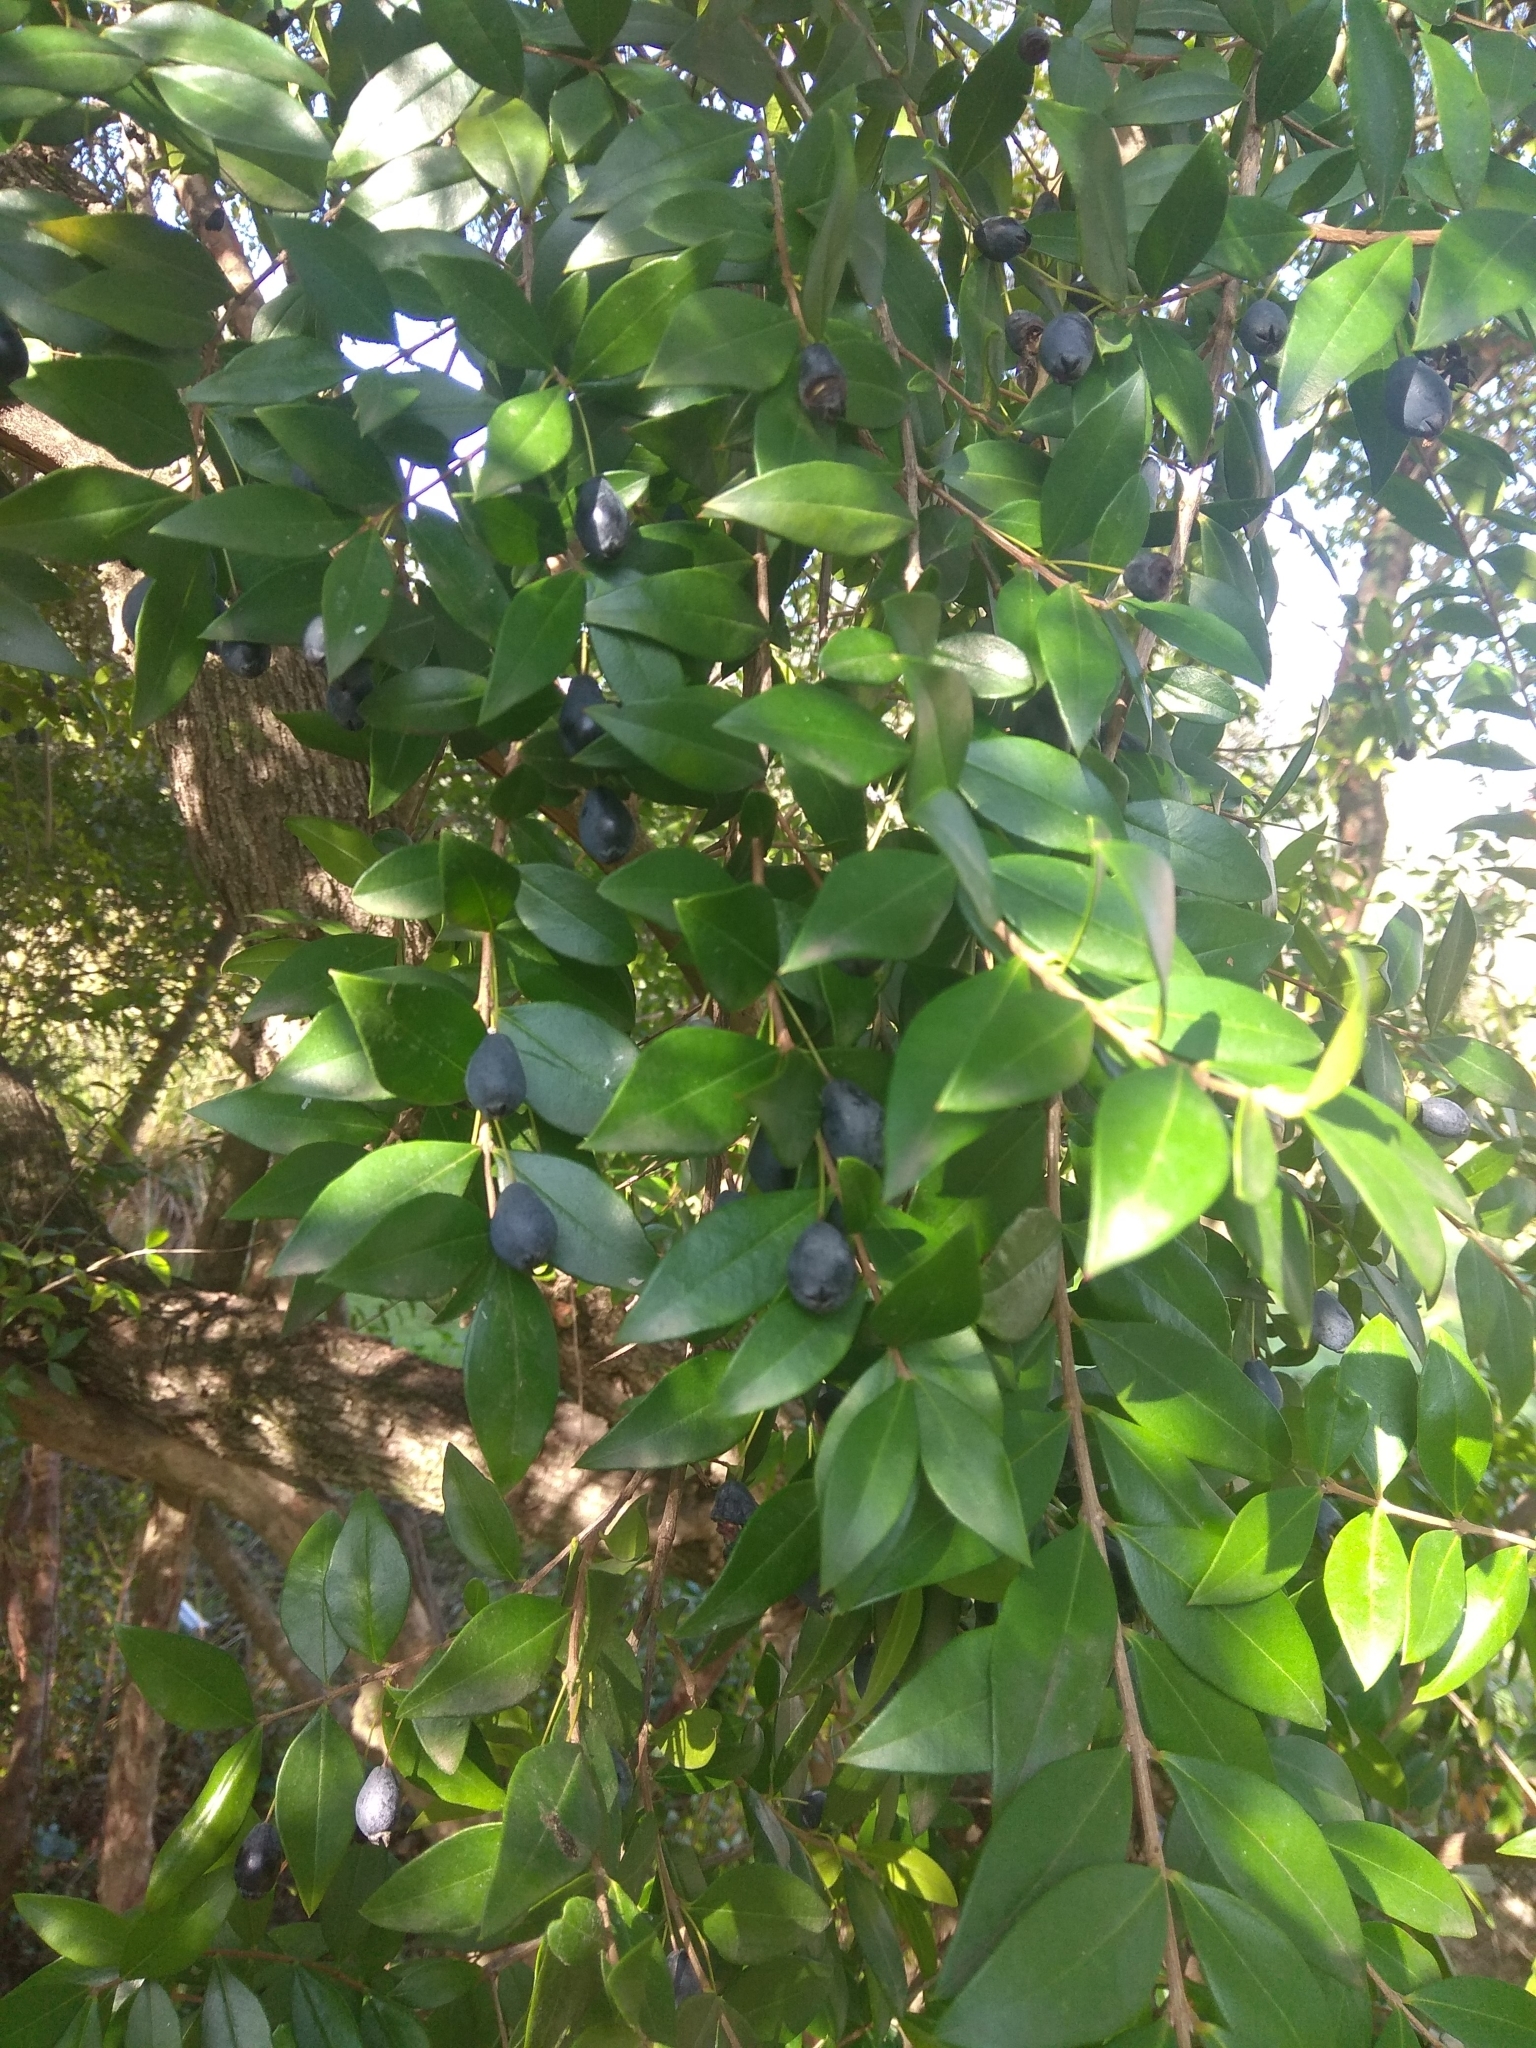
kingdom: Plantae
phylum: Tracheophyta
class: Magnoliopsida
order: Myrtales
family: Myrtaceae
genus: Myrtus
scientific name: Myrtus communis
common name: Myrtle
